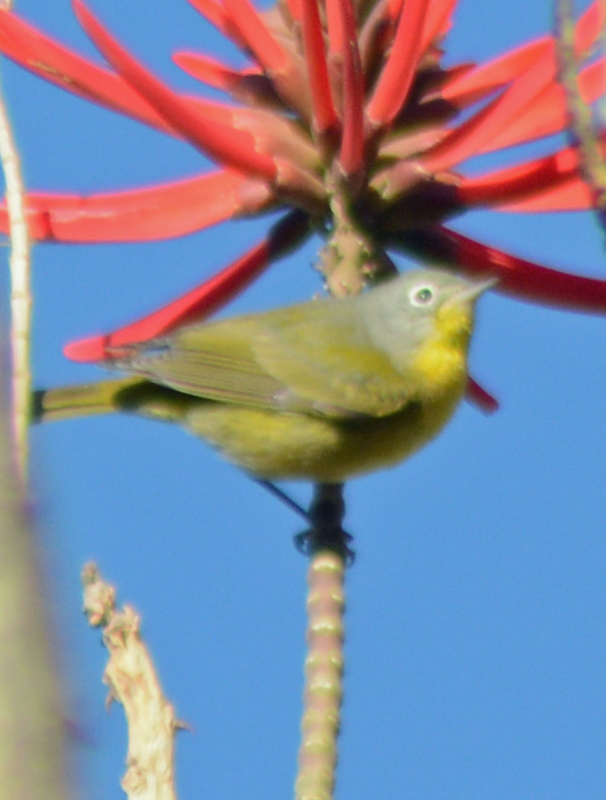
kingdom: Animalia
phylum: Chordata
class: Aves
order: Passeriformes
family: Parulidae
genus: Leiothlypis
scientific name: Leiothlypis ruficapilla
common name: Nashville warbler
